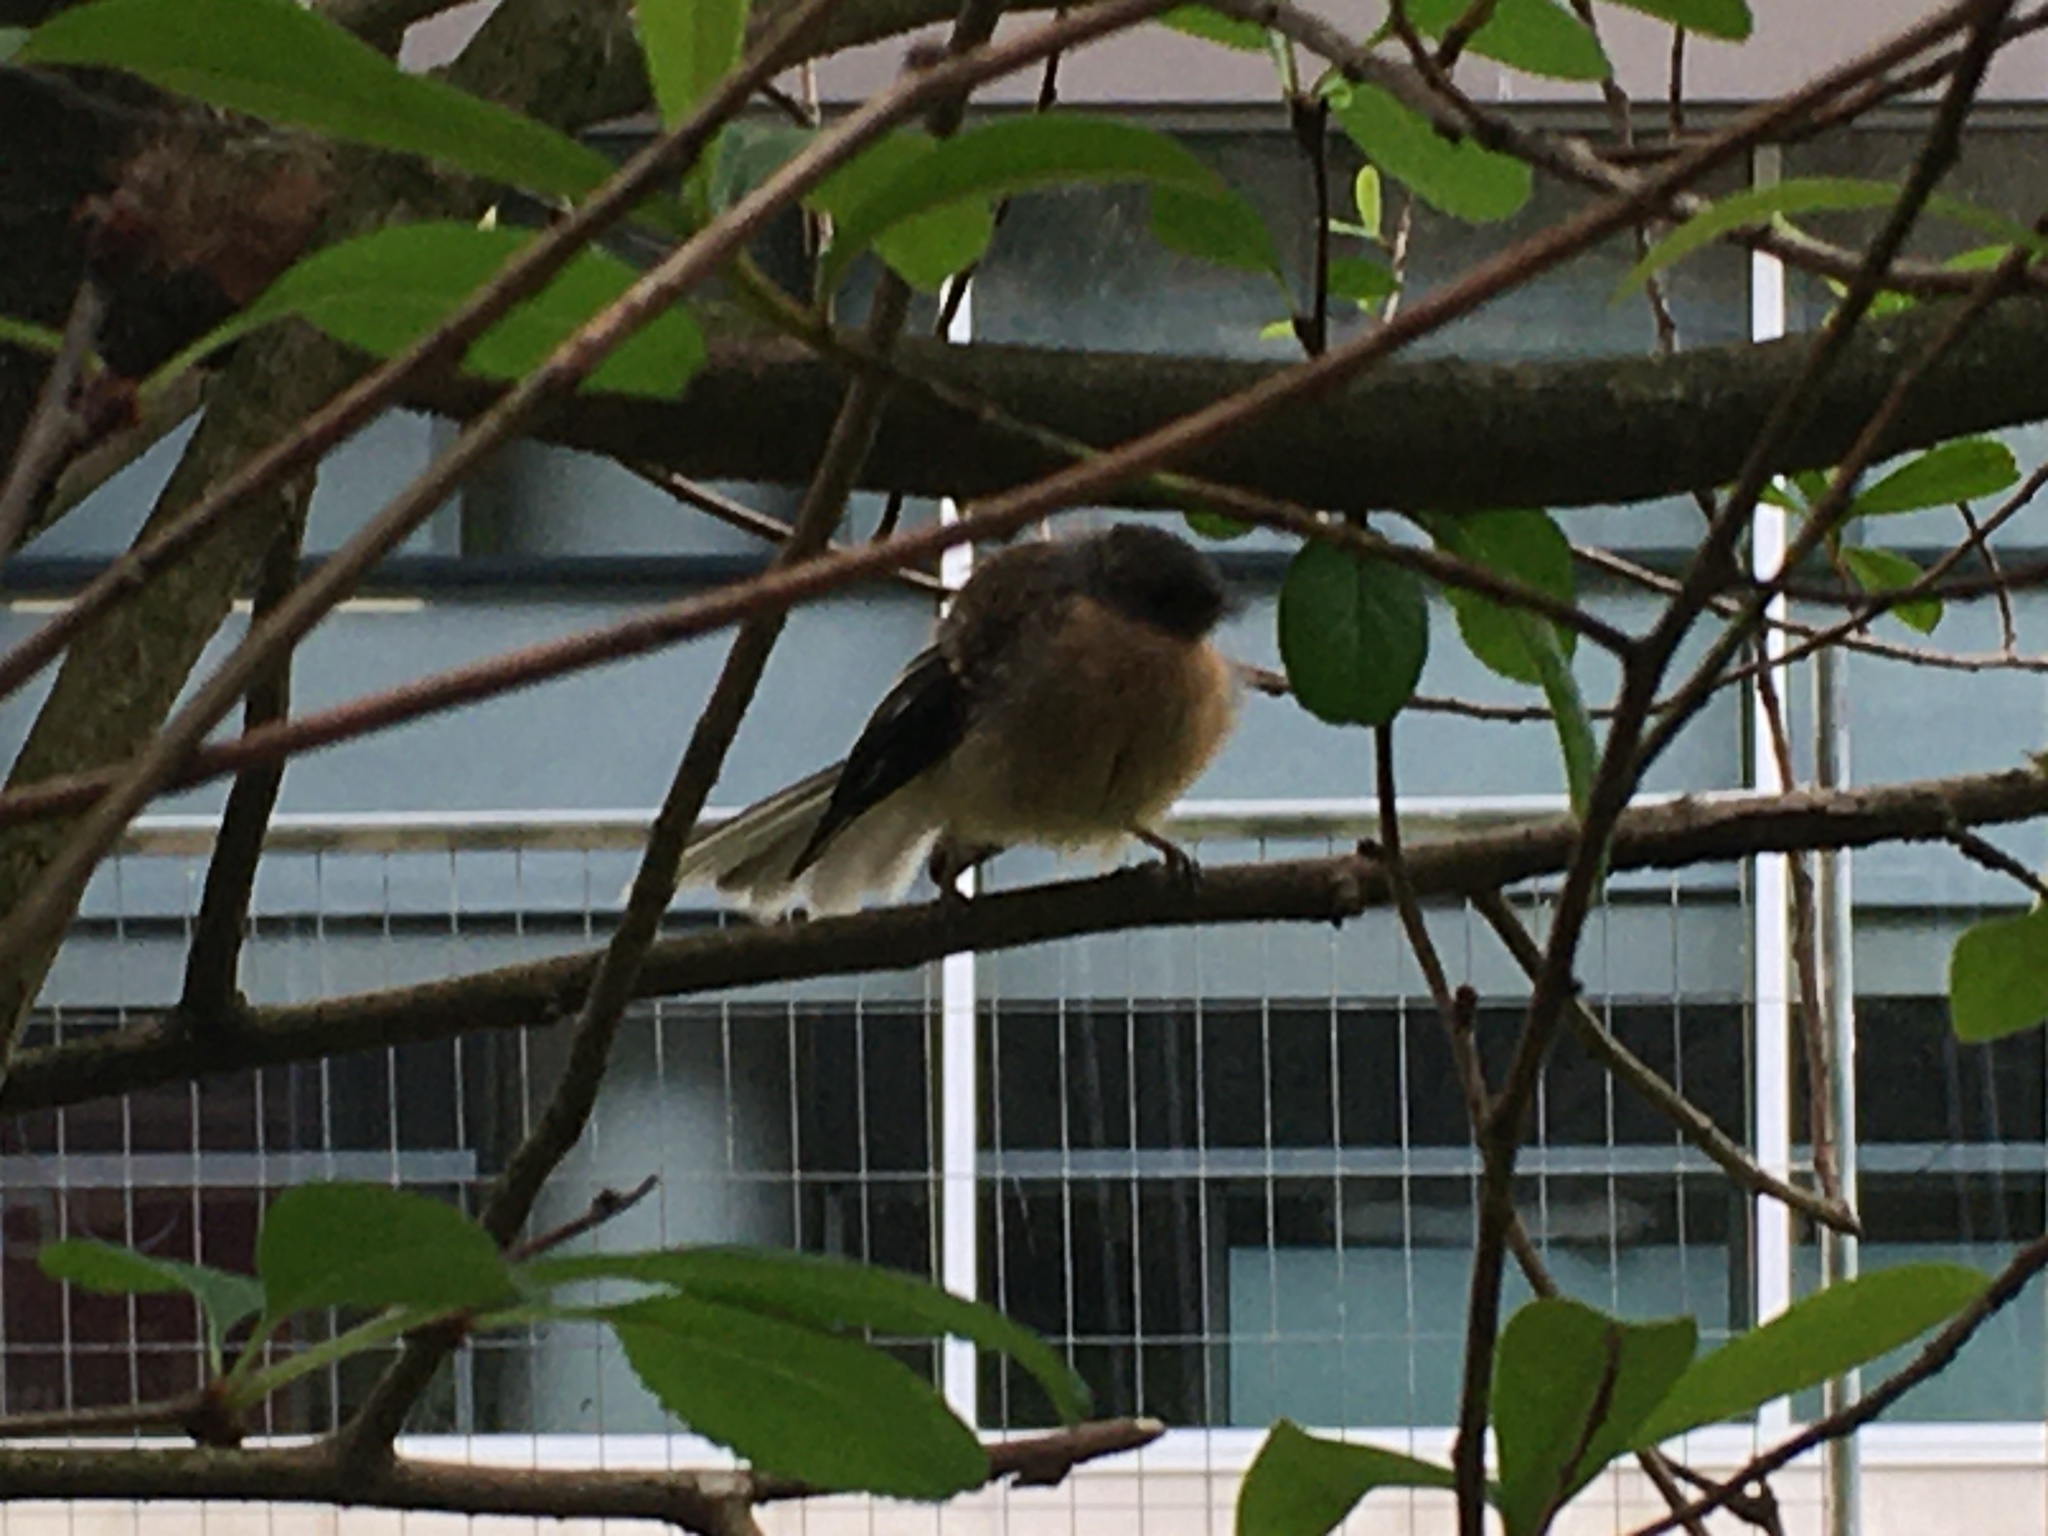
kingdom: Animalia
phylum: Chordata
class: Aves
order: Passeriformes
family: Rhipiduridae
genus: Rhipidura
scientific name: Rhipidura fuliginosa
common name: New zealand fantail
